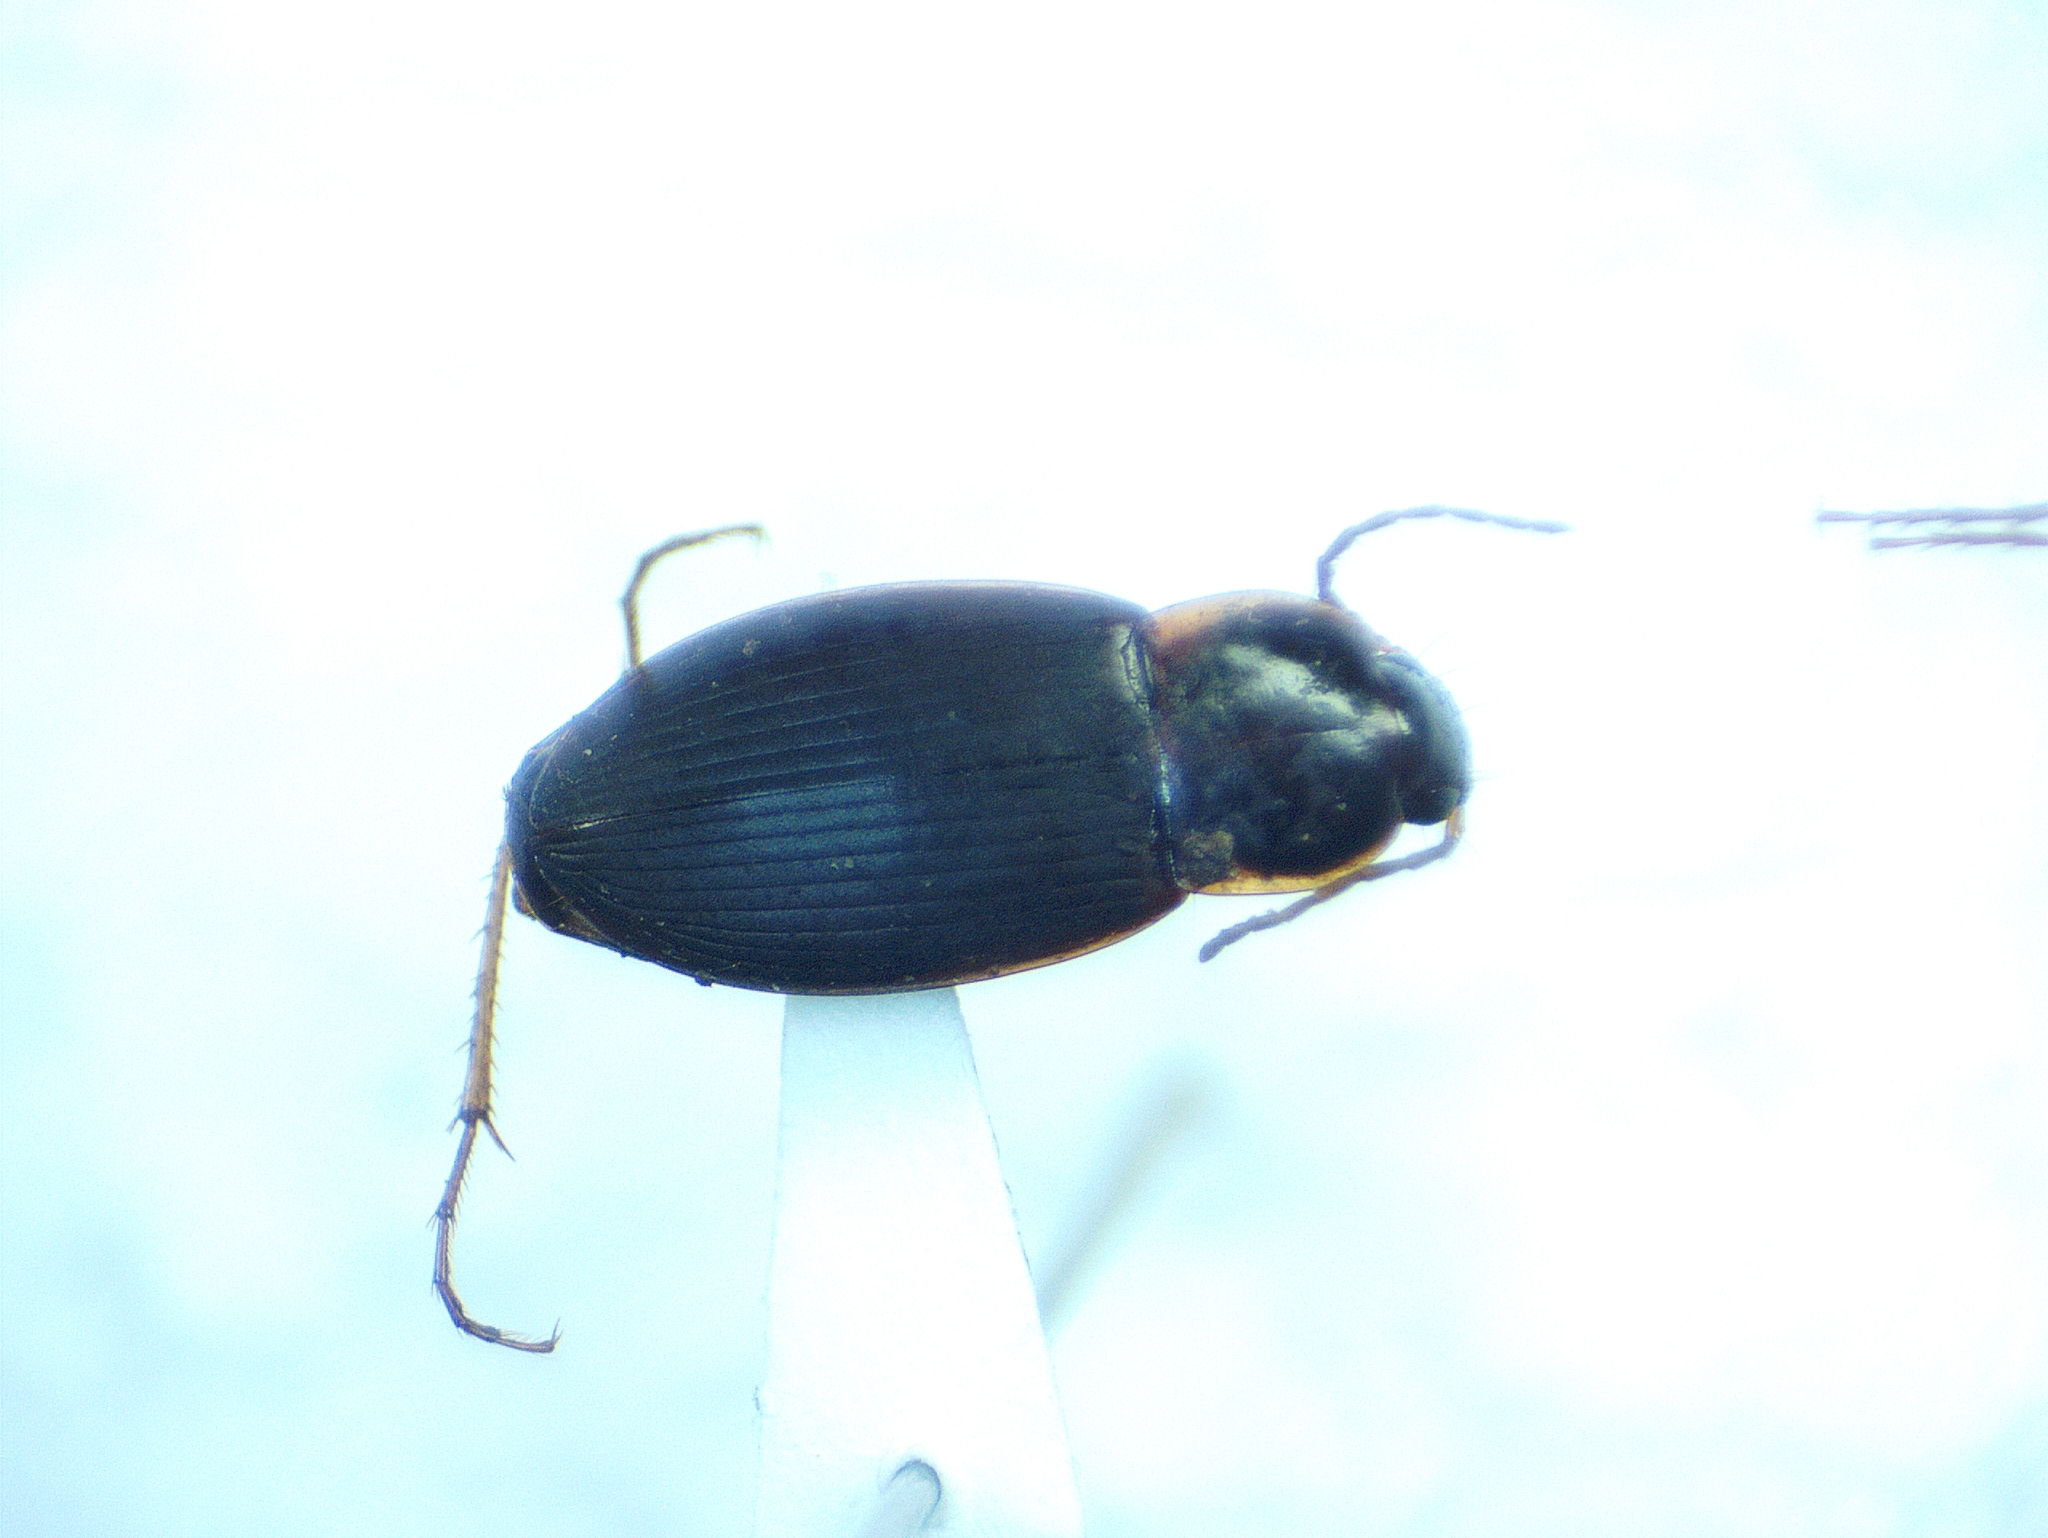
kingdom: Animalia
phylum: Arthropoda
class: Insecta
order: Coleoptera
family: Carabidae
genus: Calathus
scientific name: Calathus opaculus
